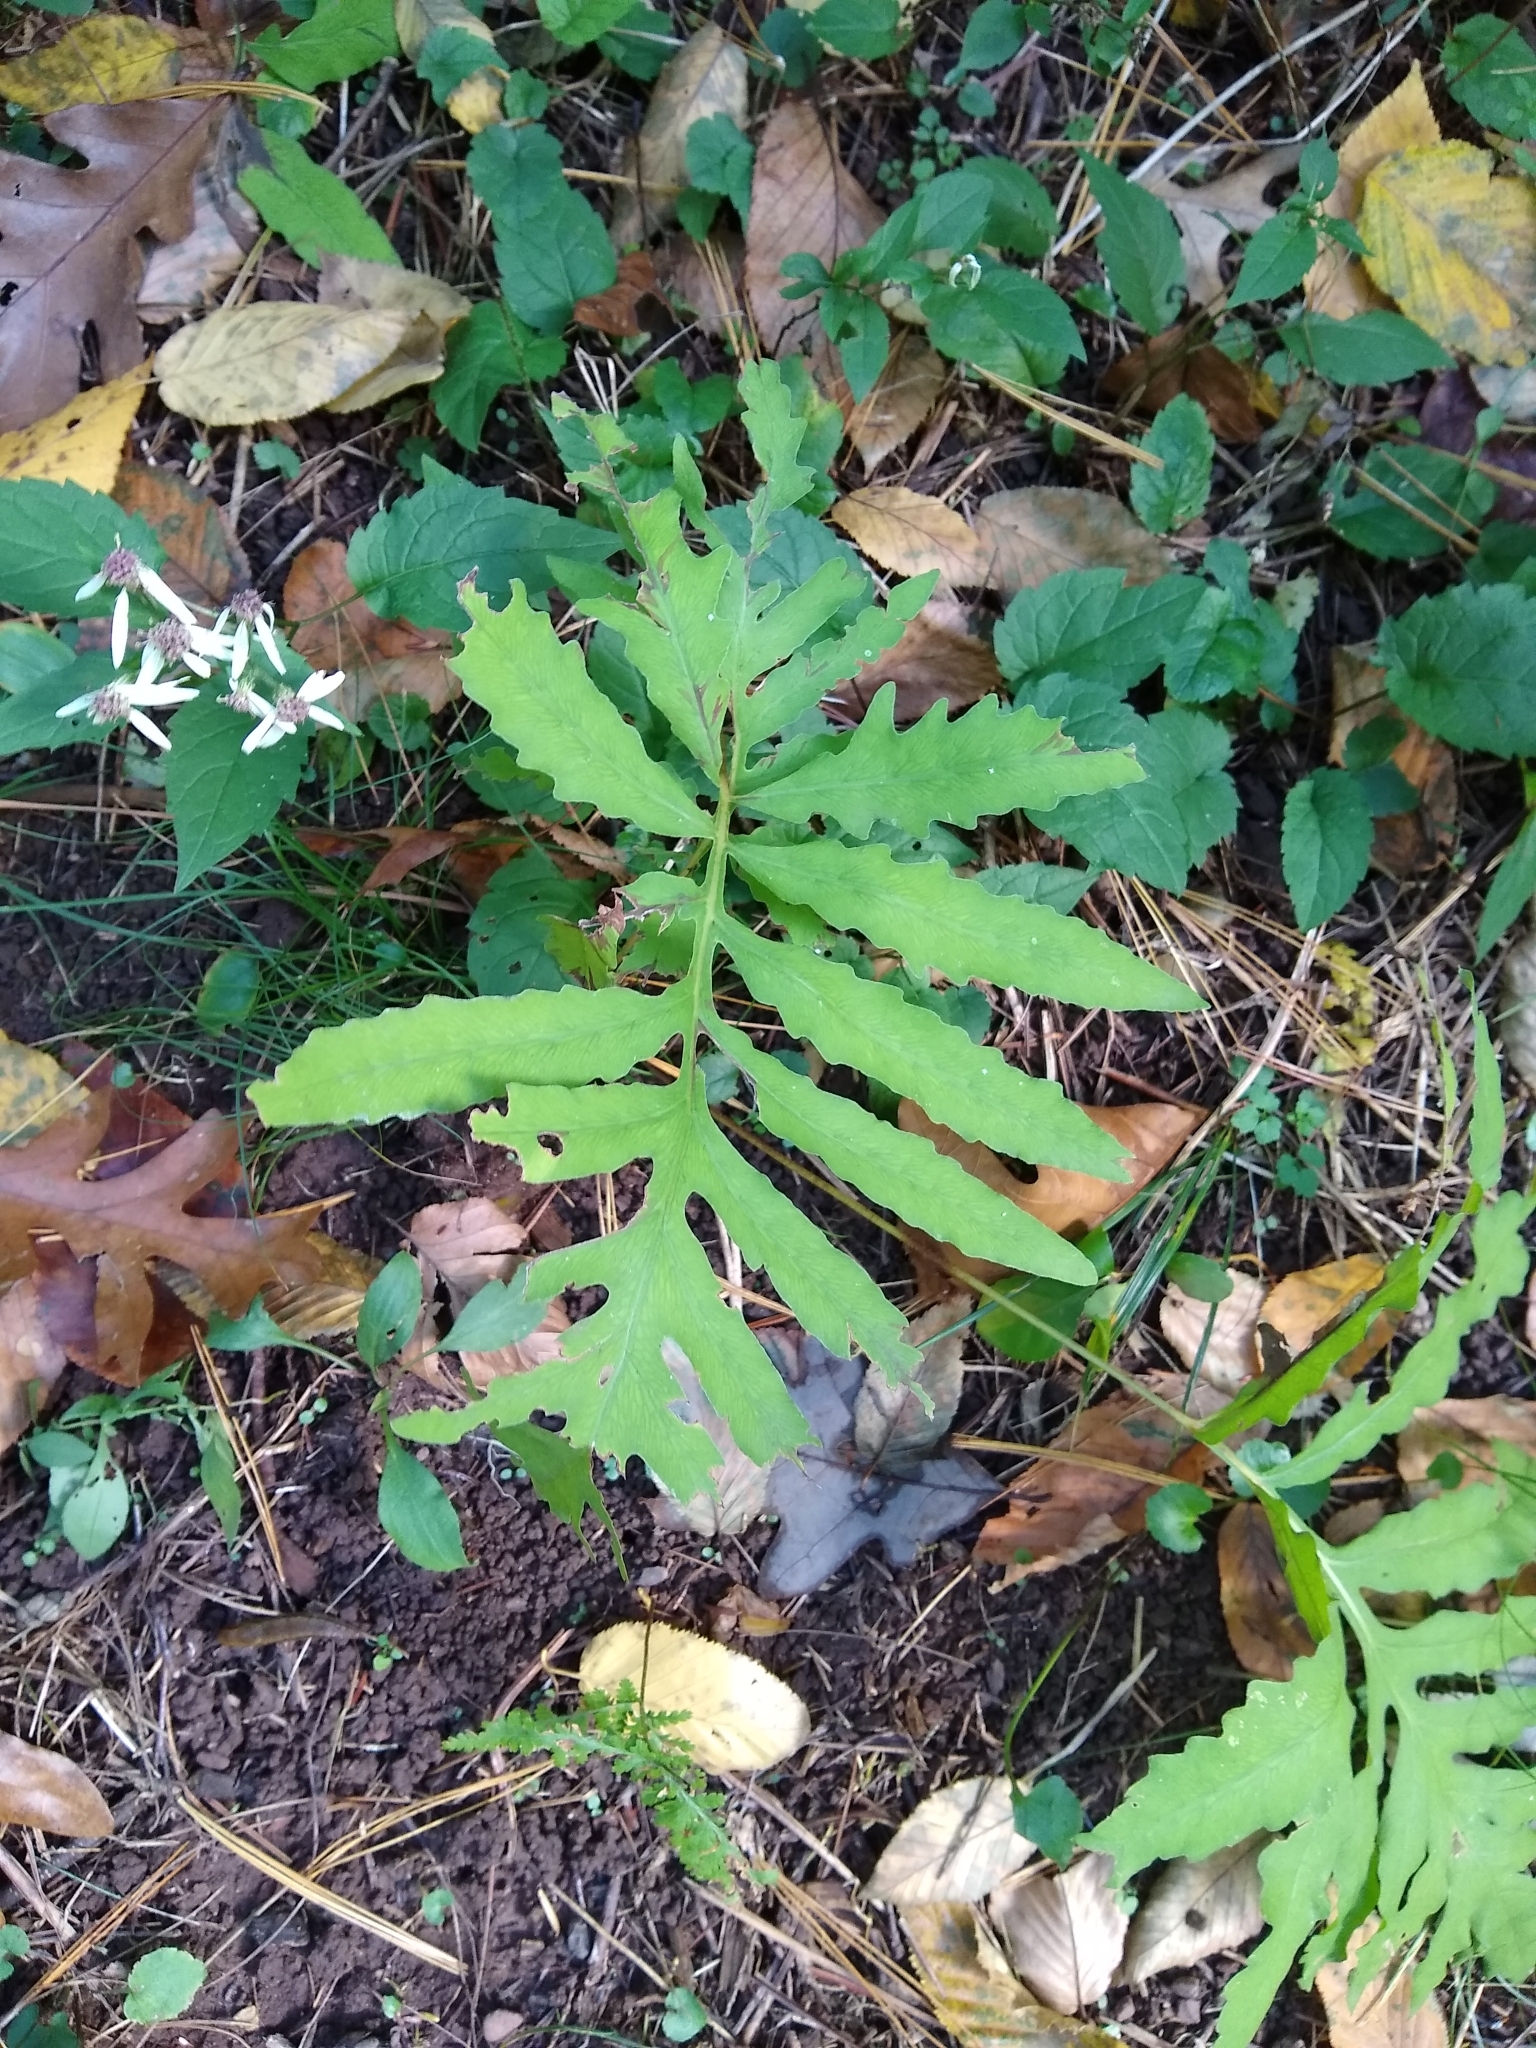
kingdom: Plantae
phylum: Tracheophyta
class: Polypodiopsida
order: Polypodiales
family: Onocleaceae
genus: Onoclea
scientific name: Onoclea sensibilis
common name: Sensitive fern
